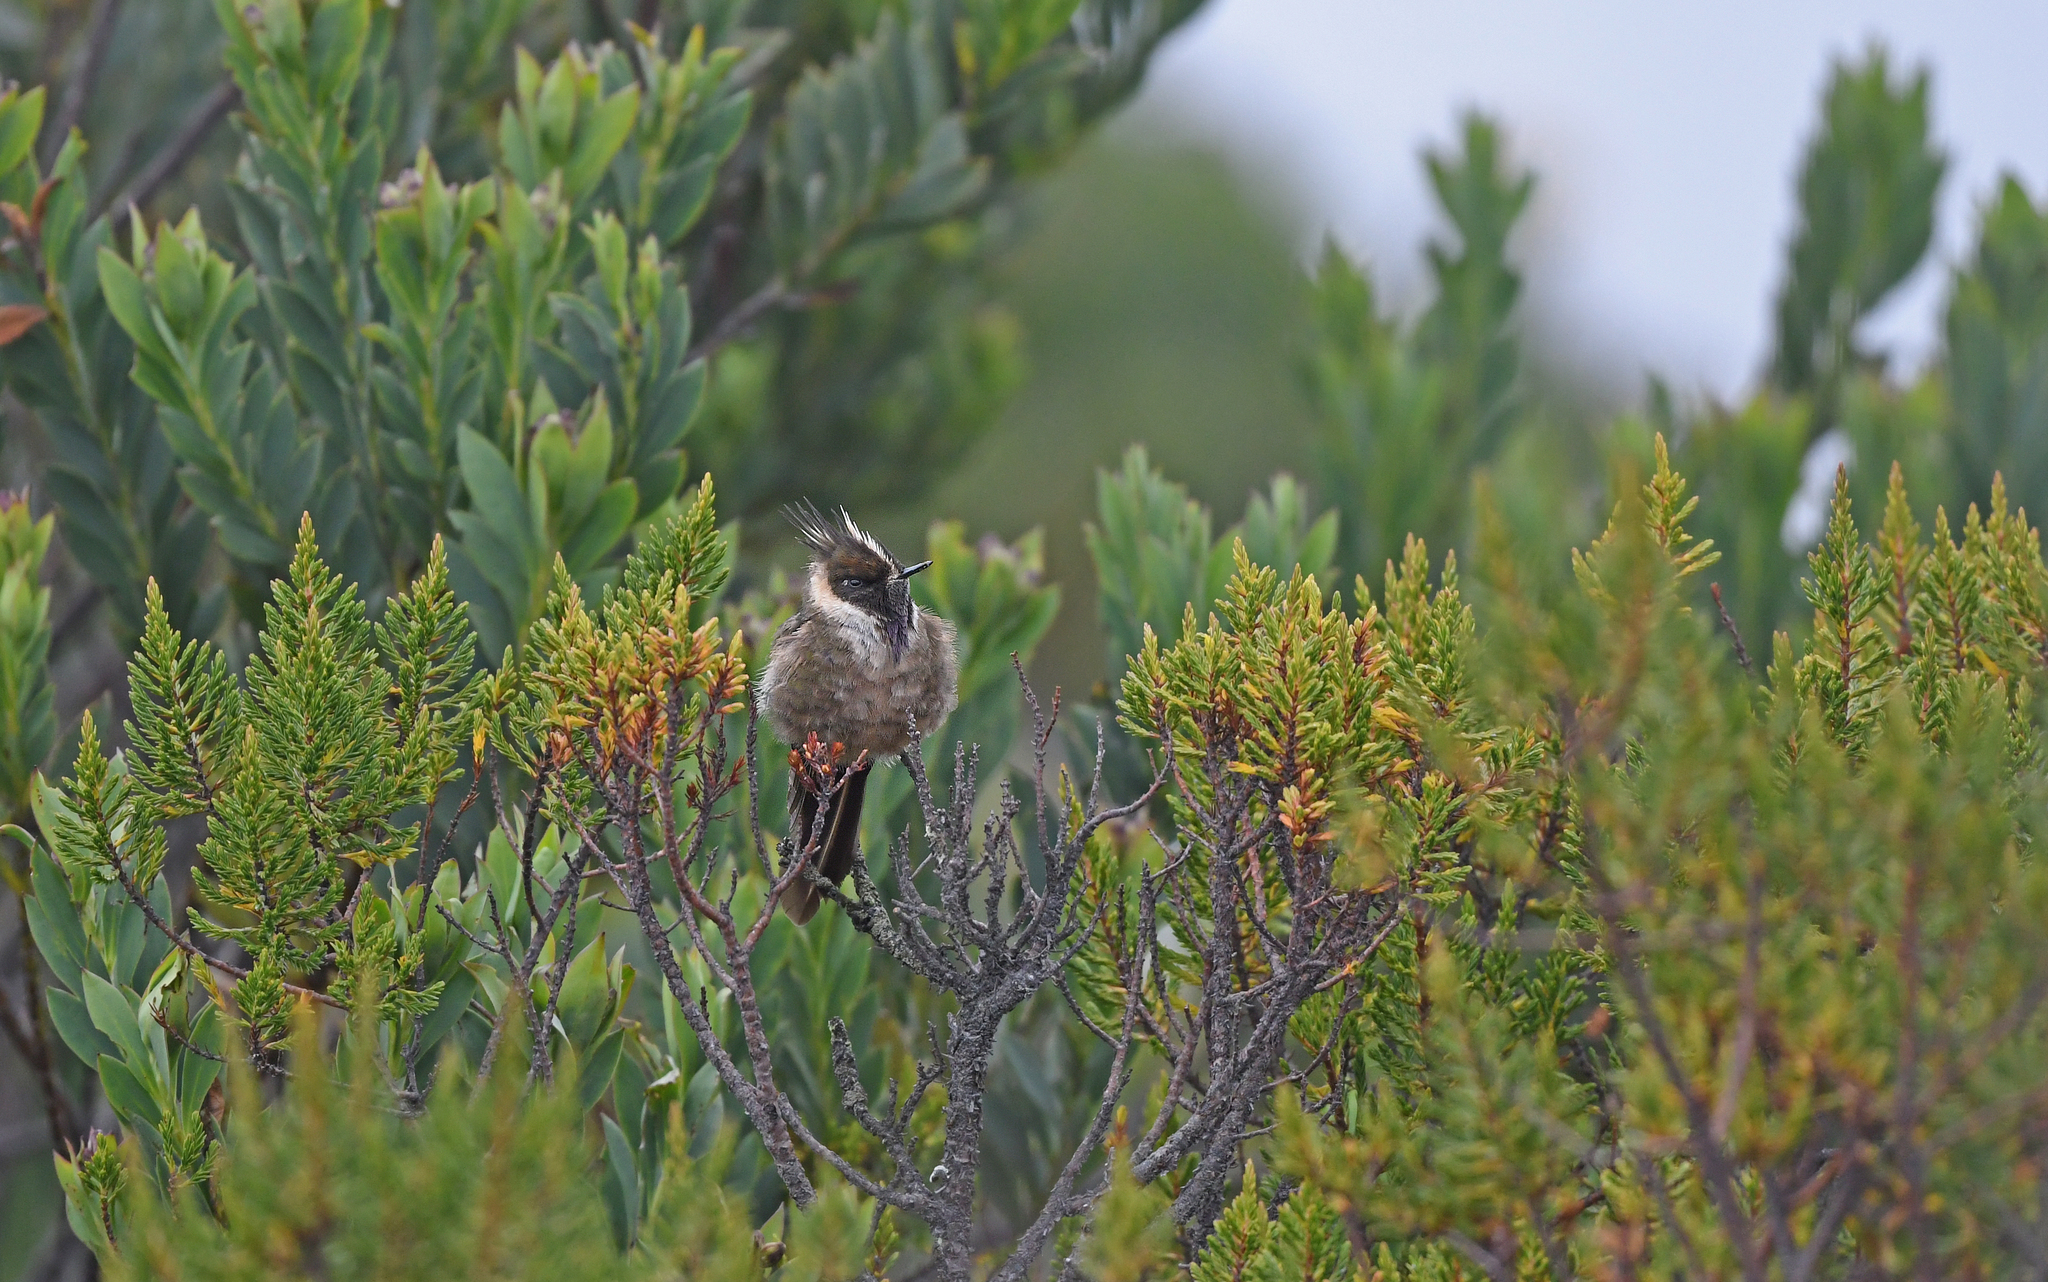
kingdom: Animalia
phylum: Chordata
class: Aves
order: Apodiformes
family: Trochilidae
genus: Oxypogon
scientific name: Oxypogon stuebelii
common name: Buffy helmetcrest
